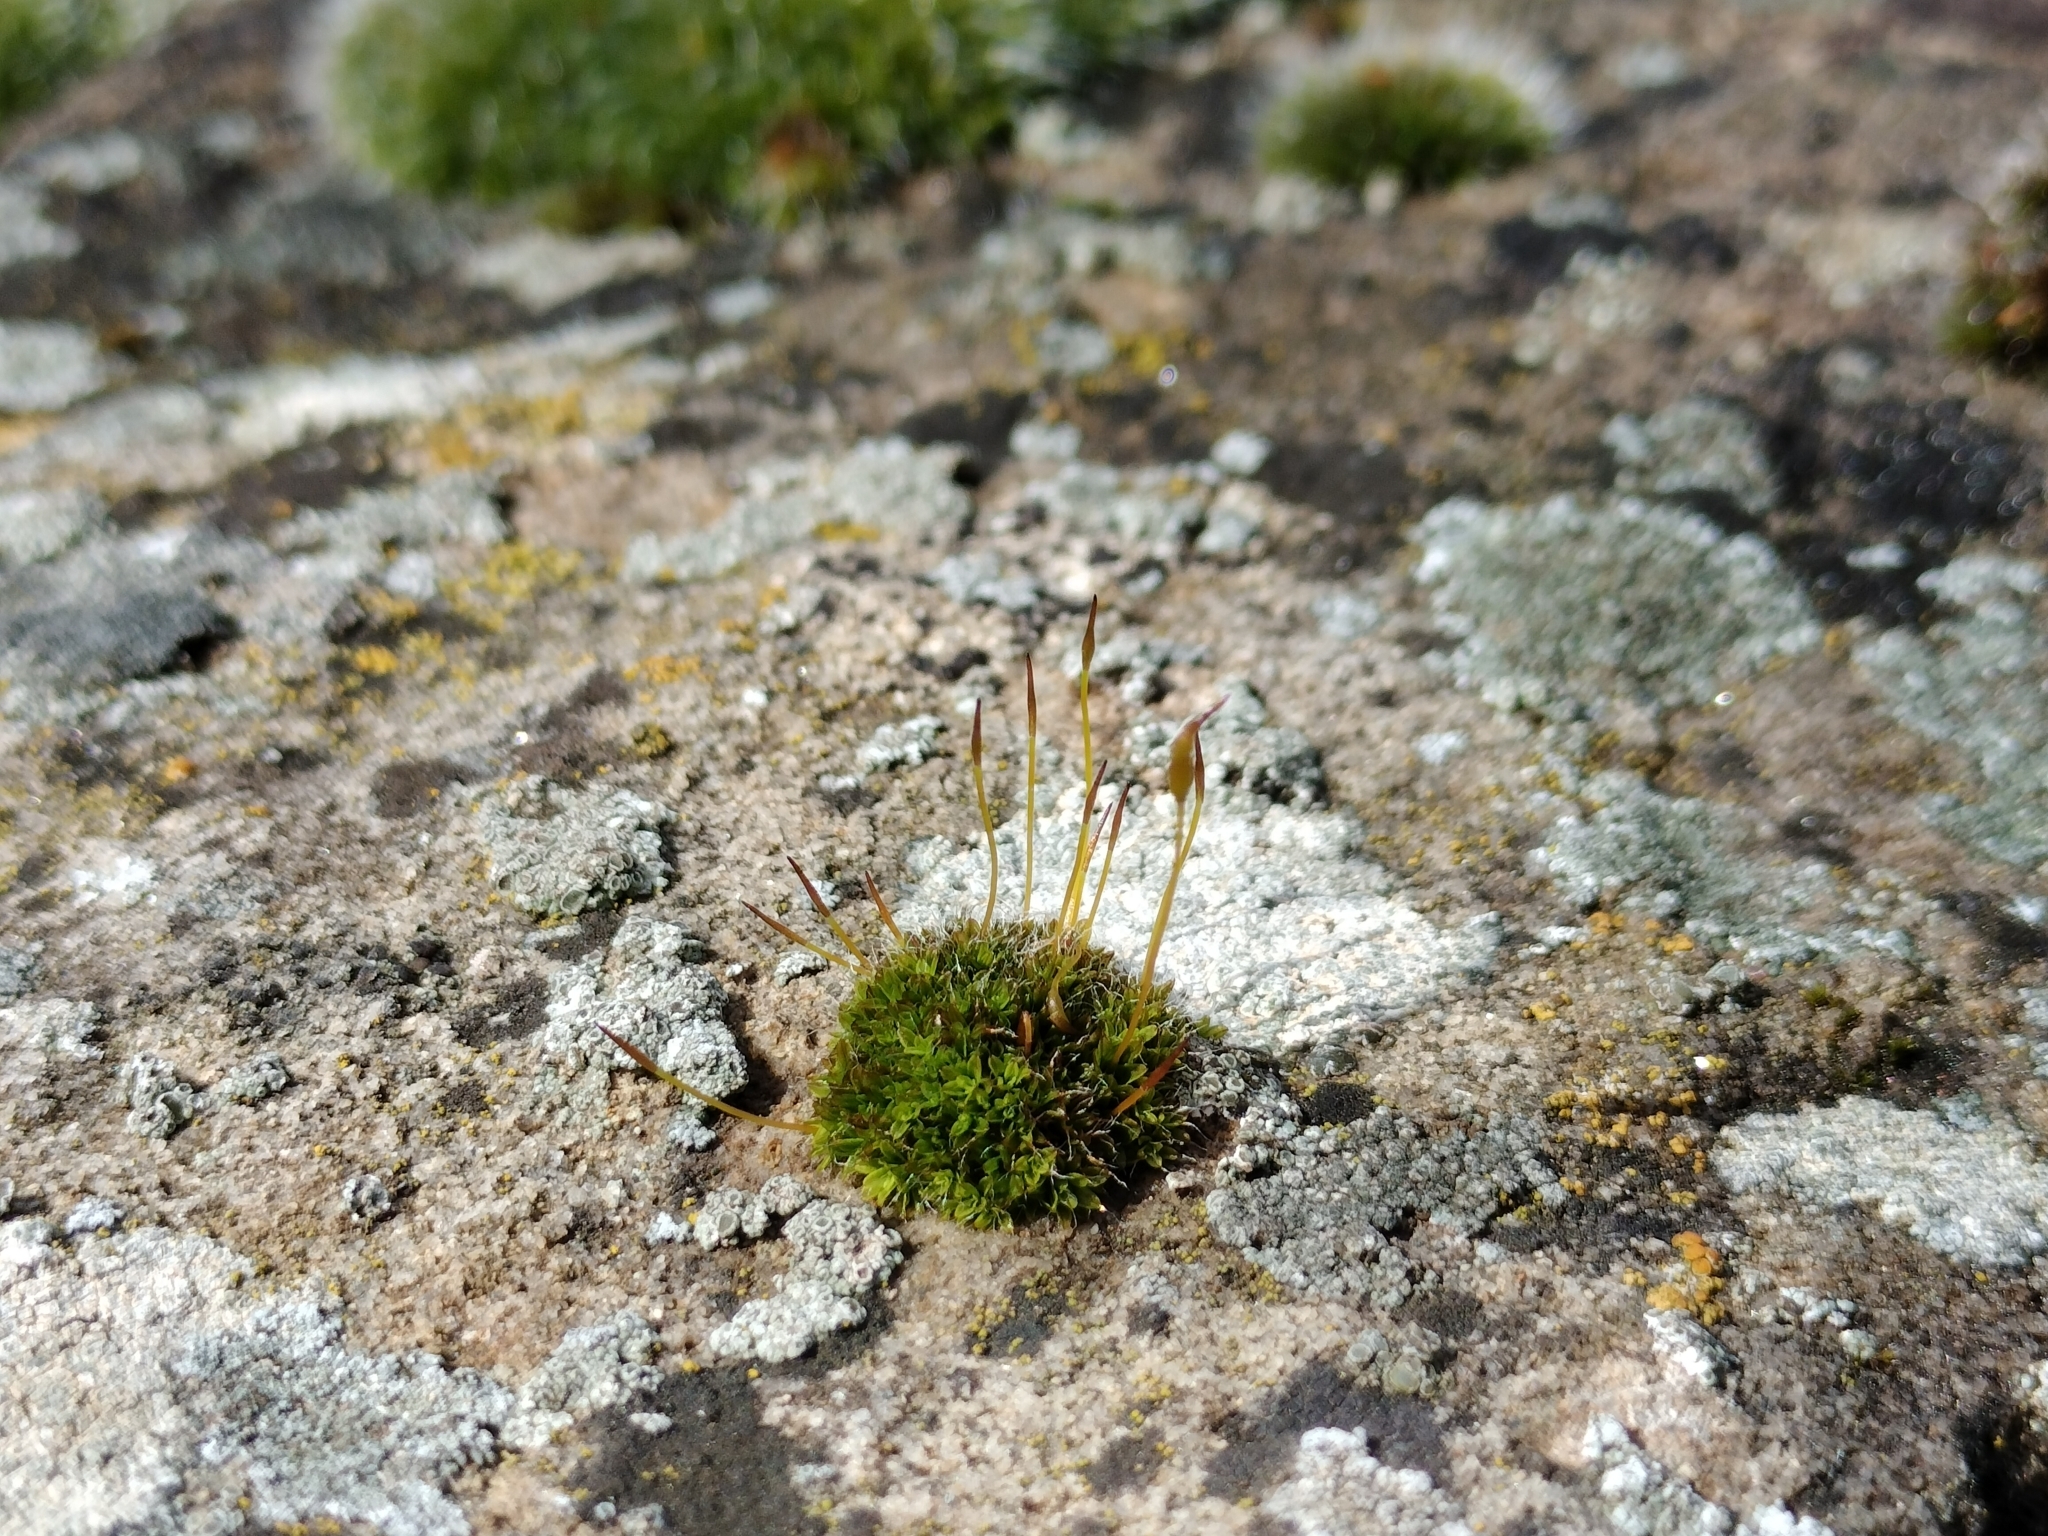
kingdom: Plantae
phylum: Bryophyta
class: Bryopsida
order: Pottiales
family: Pottiaceae
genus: Tortula
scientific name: Tortula muralis
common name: Wall screw-moss
